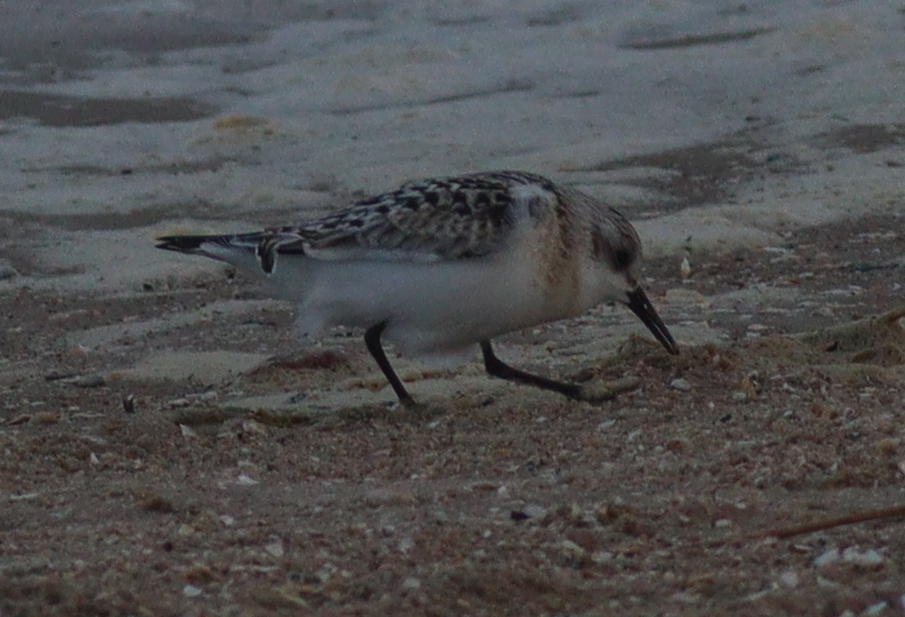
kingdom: Animalia
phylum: Chordata
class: Aves
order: Charadriiformes
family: Scolopacidae
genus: Calidris
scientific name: Calidris alba
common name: Sanderling
